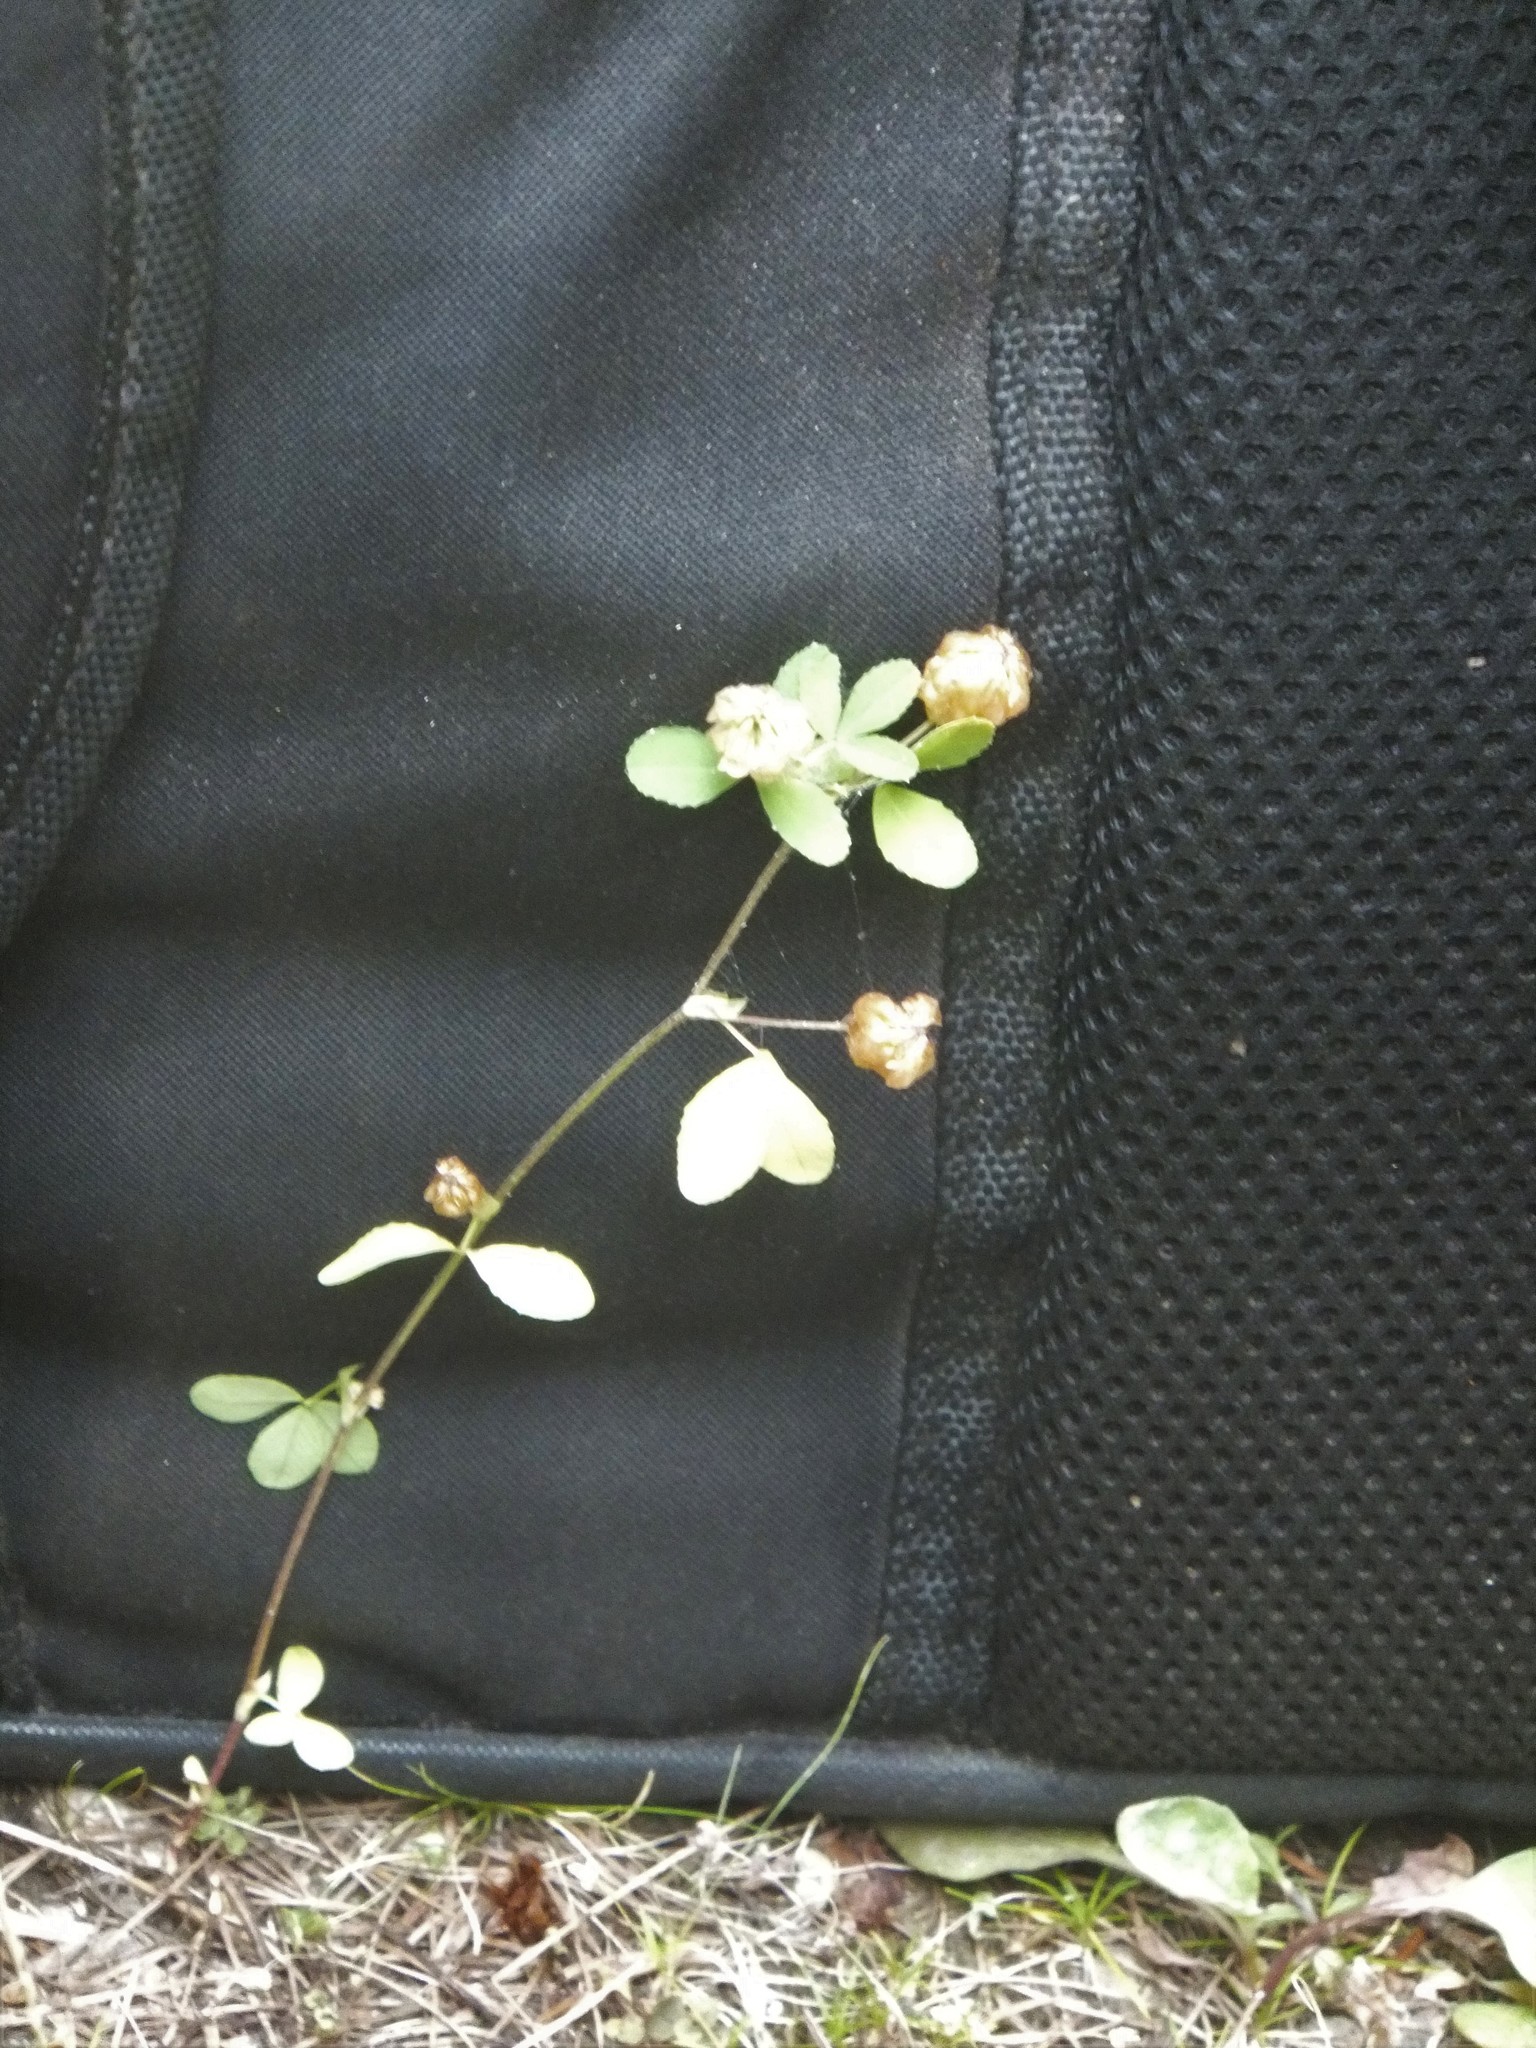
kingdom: Plantae
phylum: Tracheophyta
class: Magnoliopsida
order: Fabales
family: Fabaceae
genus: Trifolium
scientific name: Trifolium aureum
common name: Golden clover
